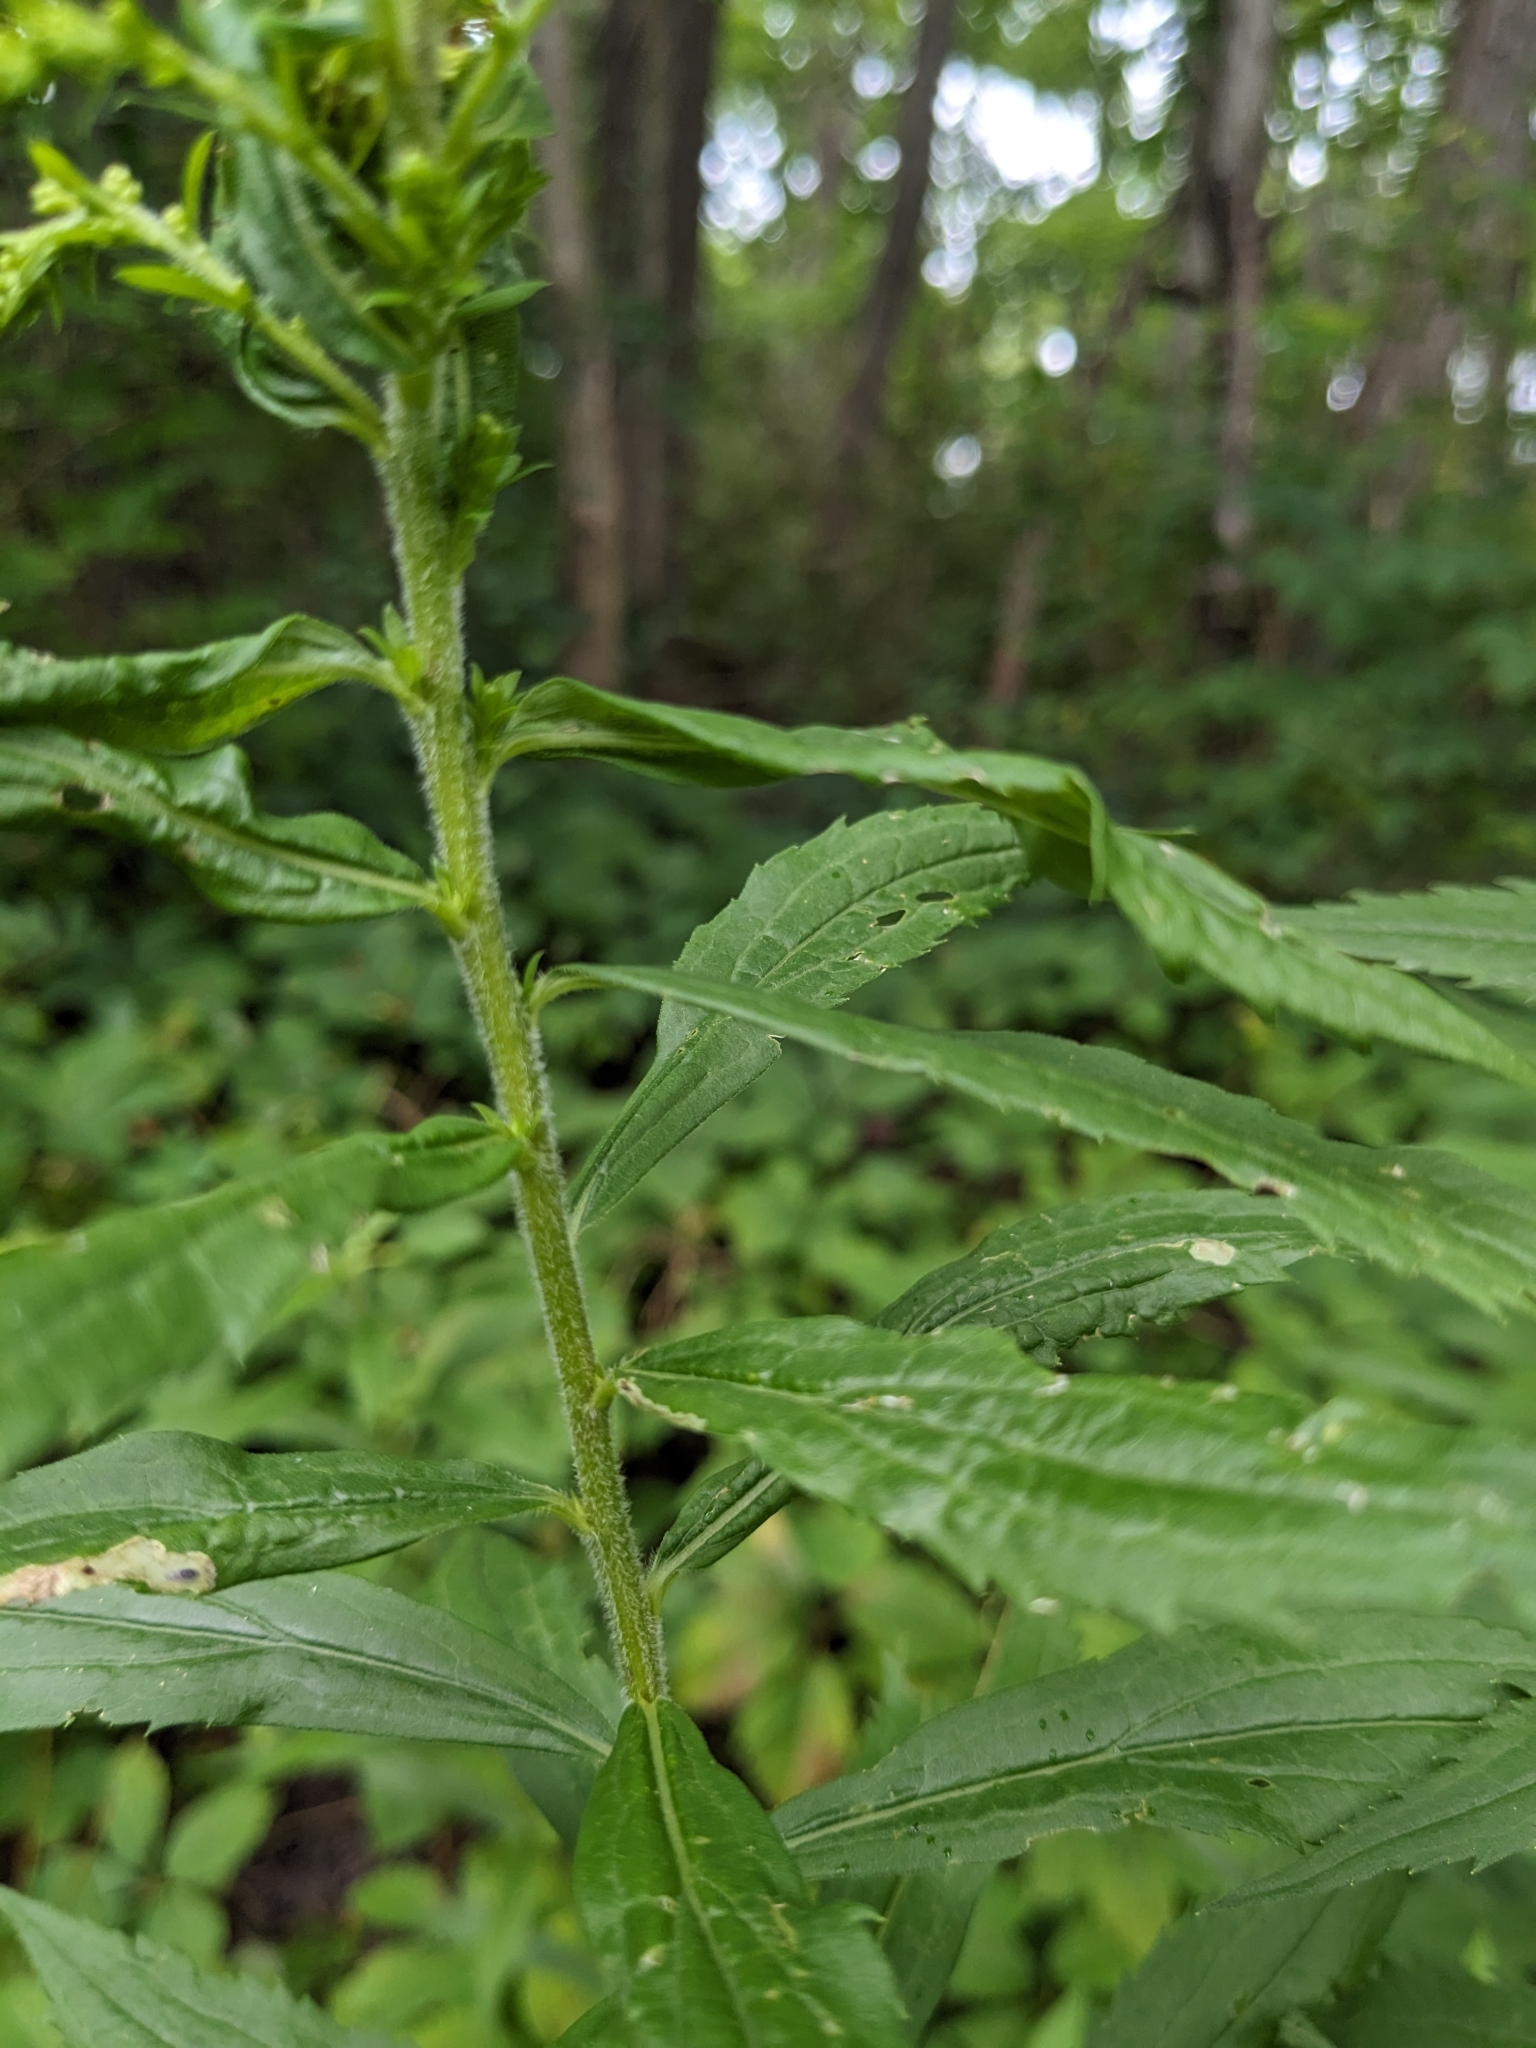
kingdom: Plantae
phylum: Tracheophyta
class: Magnoliopsida
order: Asterales
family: Asteraceae
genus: Solidago
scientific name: Solidago rugosa
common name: Rough-stemmed goldenrod
